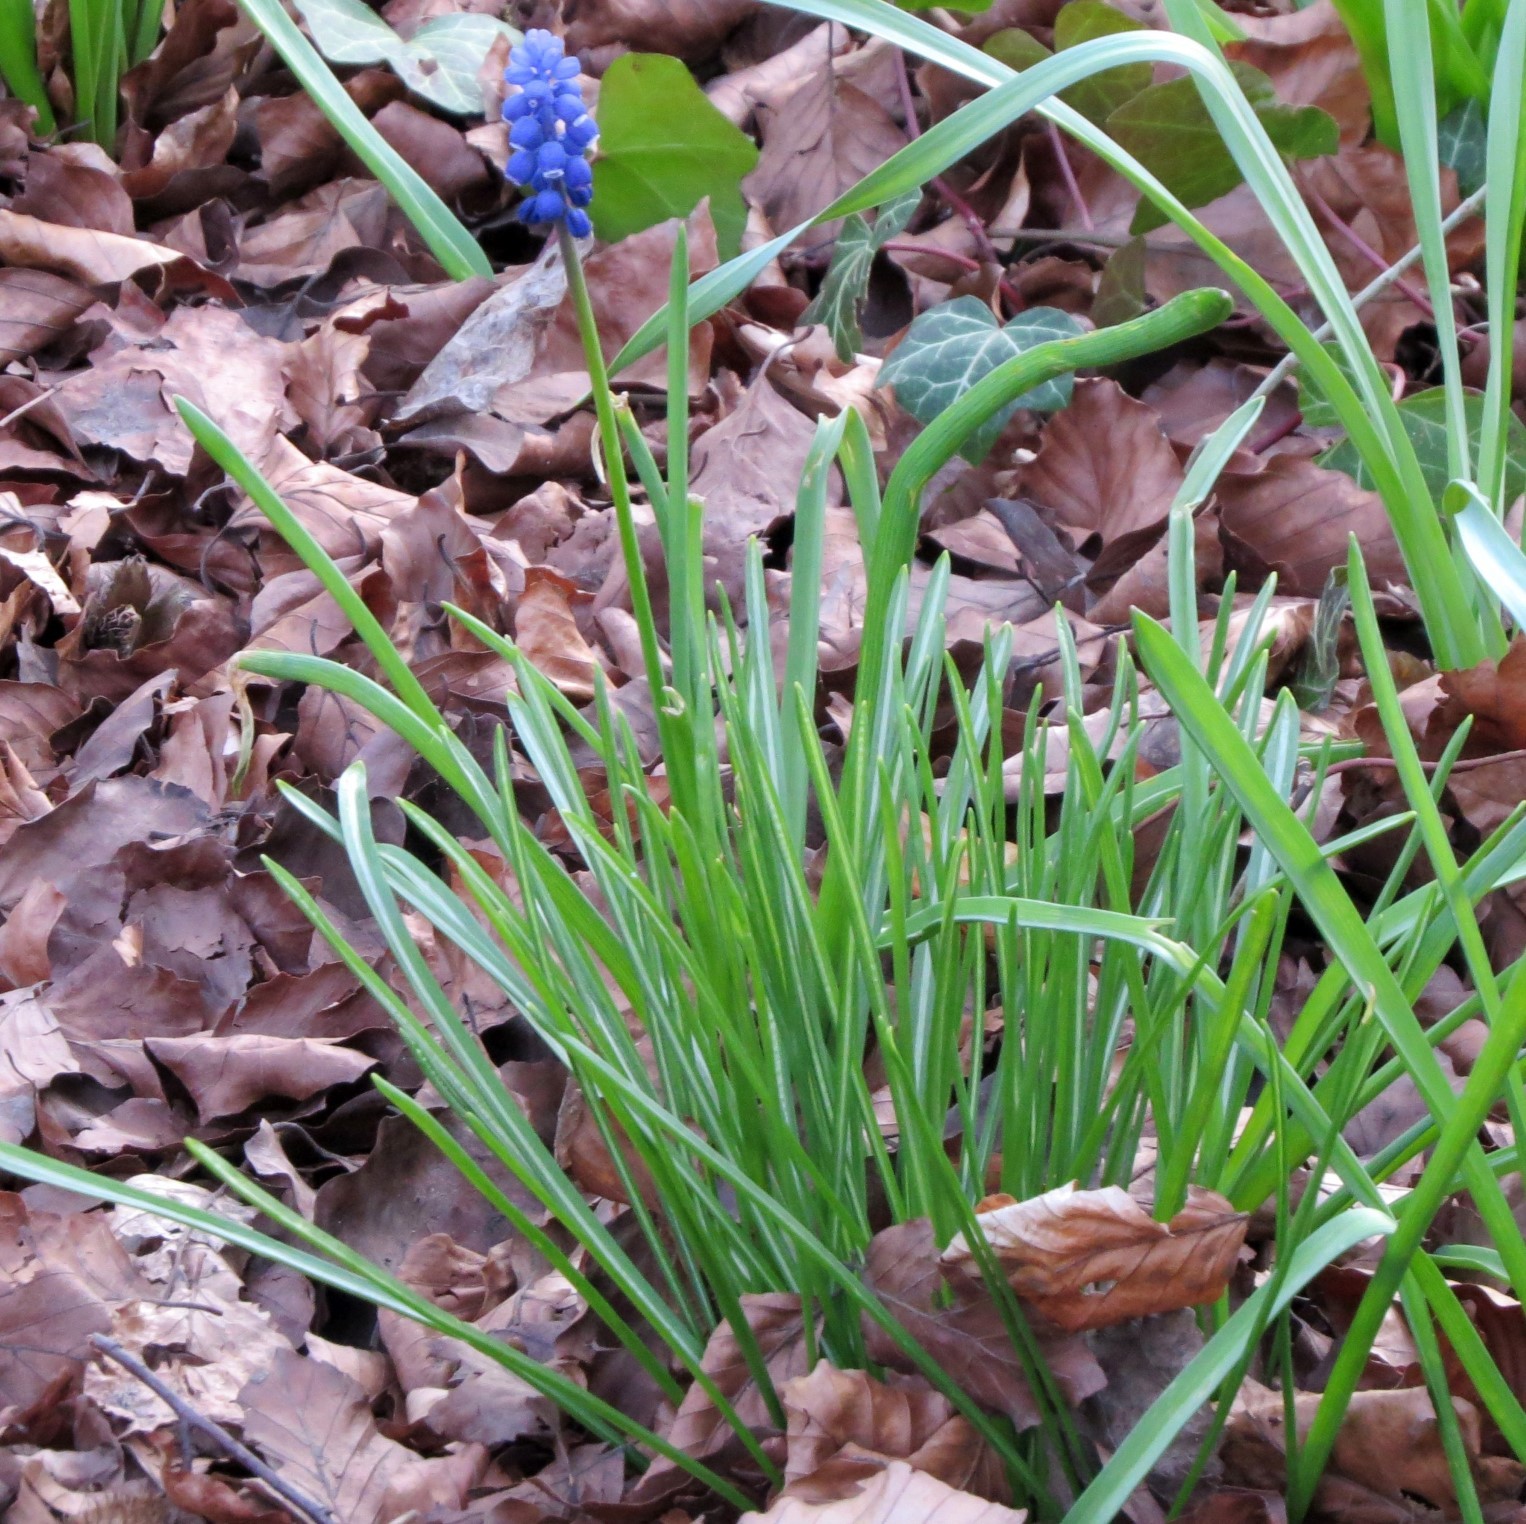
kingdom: Plantae
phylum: Tracheophyta
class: Liliopsida
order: Asparagales
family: Asparagaceae
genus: Muscari
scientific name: Muscari botryoides
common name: Compact grape-hyacinth
